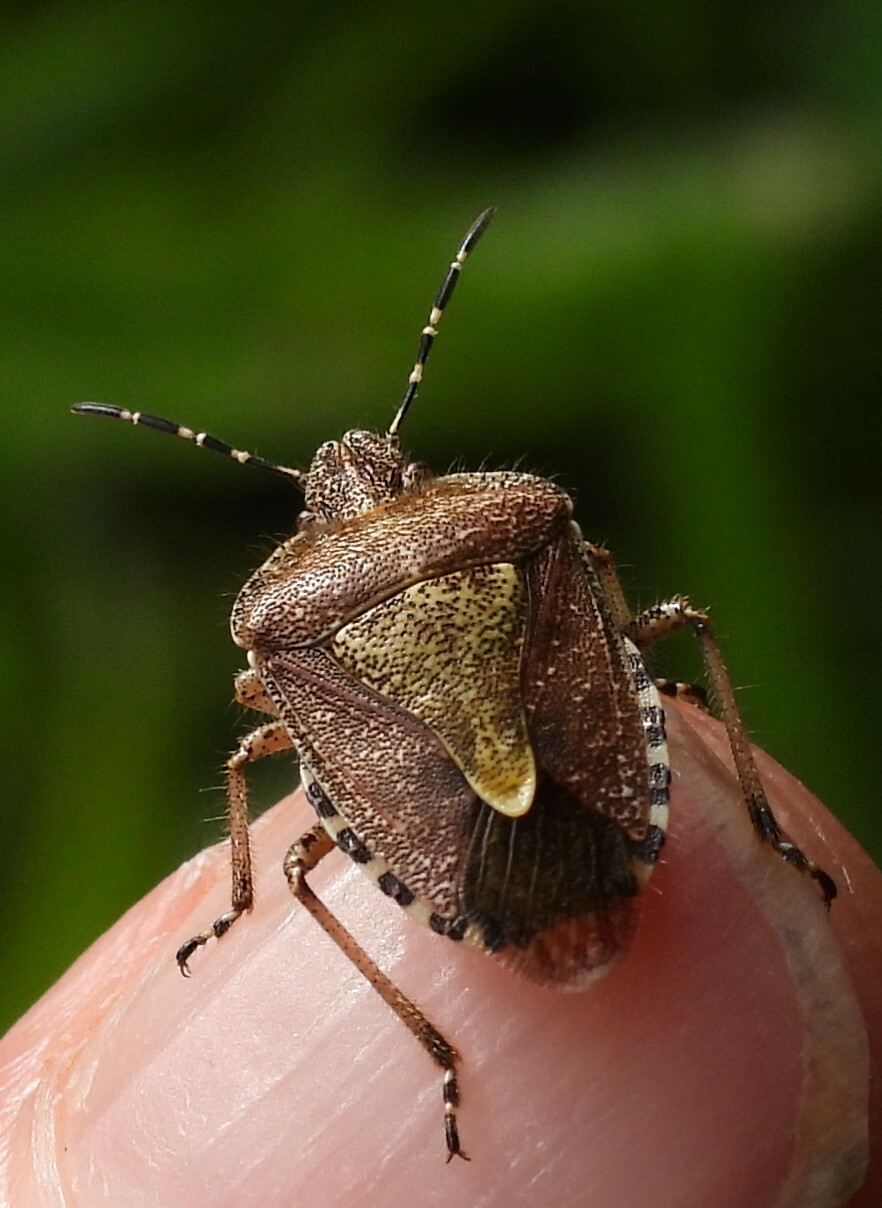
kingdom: Animalia
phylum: Arthropoda
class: Insecta
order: Hemiptera
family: Pentatomidae
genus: Dolycoris
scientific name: Dolycoris baccarum
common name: Sloe bug
